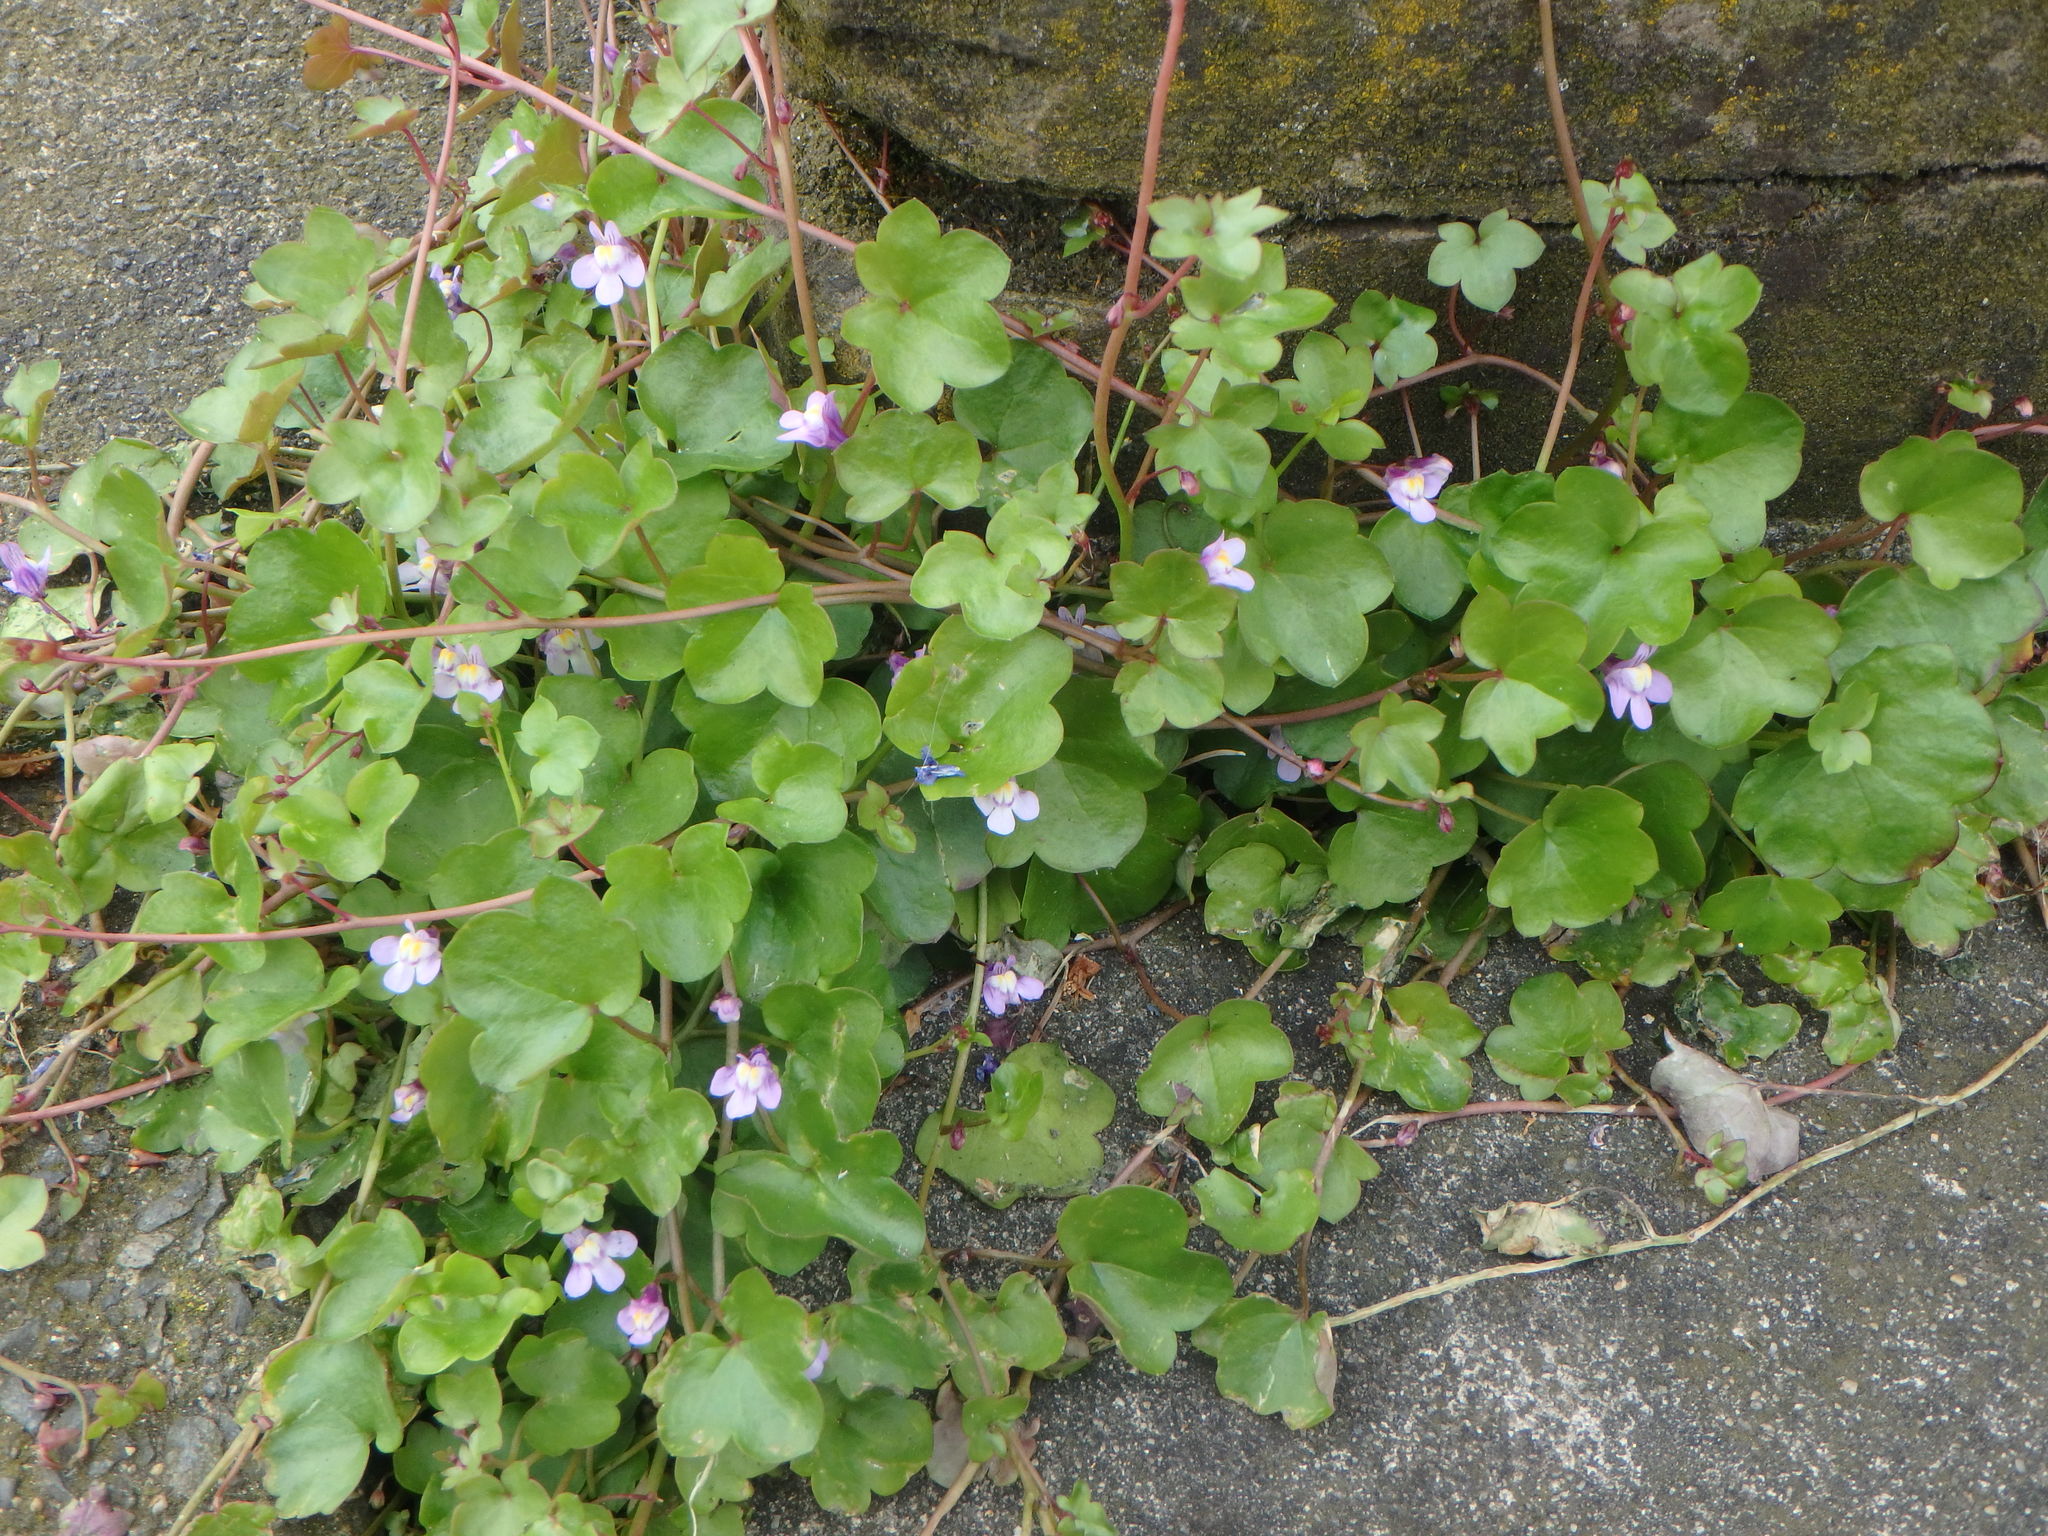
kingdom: Plantae
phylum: Tracheophyta
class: Magnoliopsida
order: Lamiales
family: Plantaginaceae
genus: Cymbalaria
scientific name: Cymbalaria muralis
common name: Ivy-leaved toadflax
